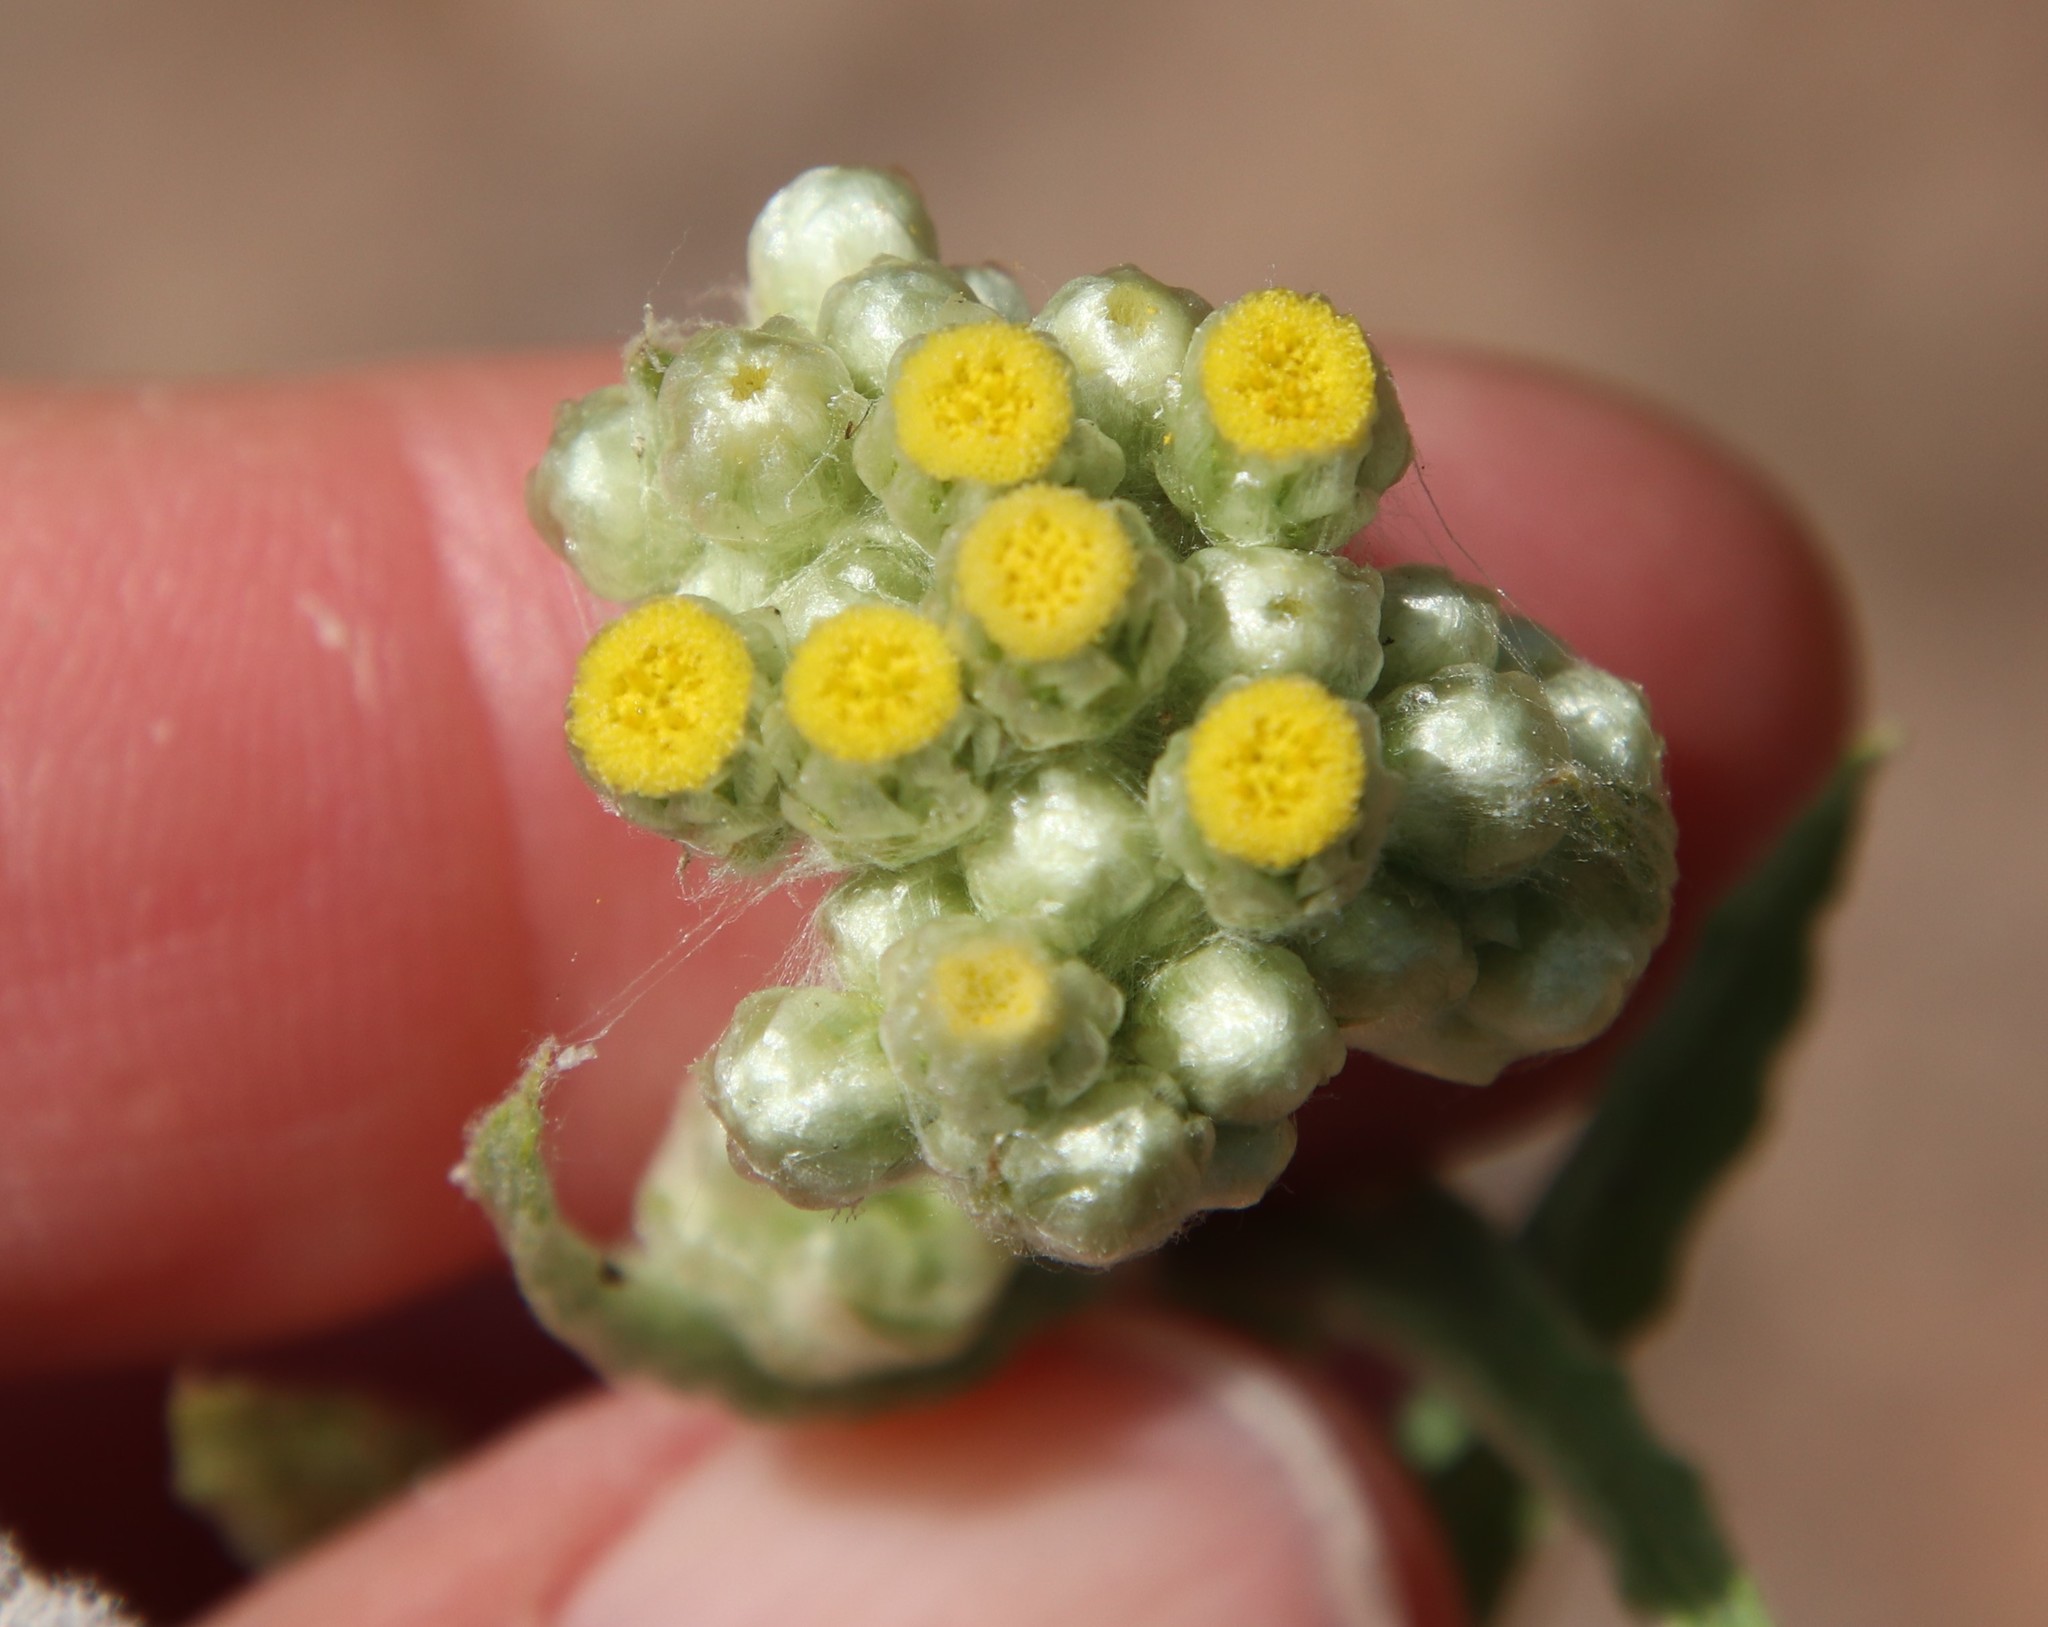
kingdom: Plantae
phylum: Tracheophyta
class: Magnoliopsida
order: Asterales
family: Asteraceae
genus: Pseudognaphalium
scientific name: Pseudognaphalium stramineum
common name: Cotton-batting-plant
